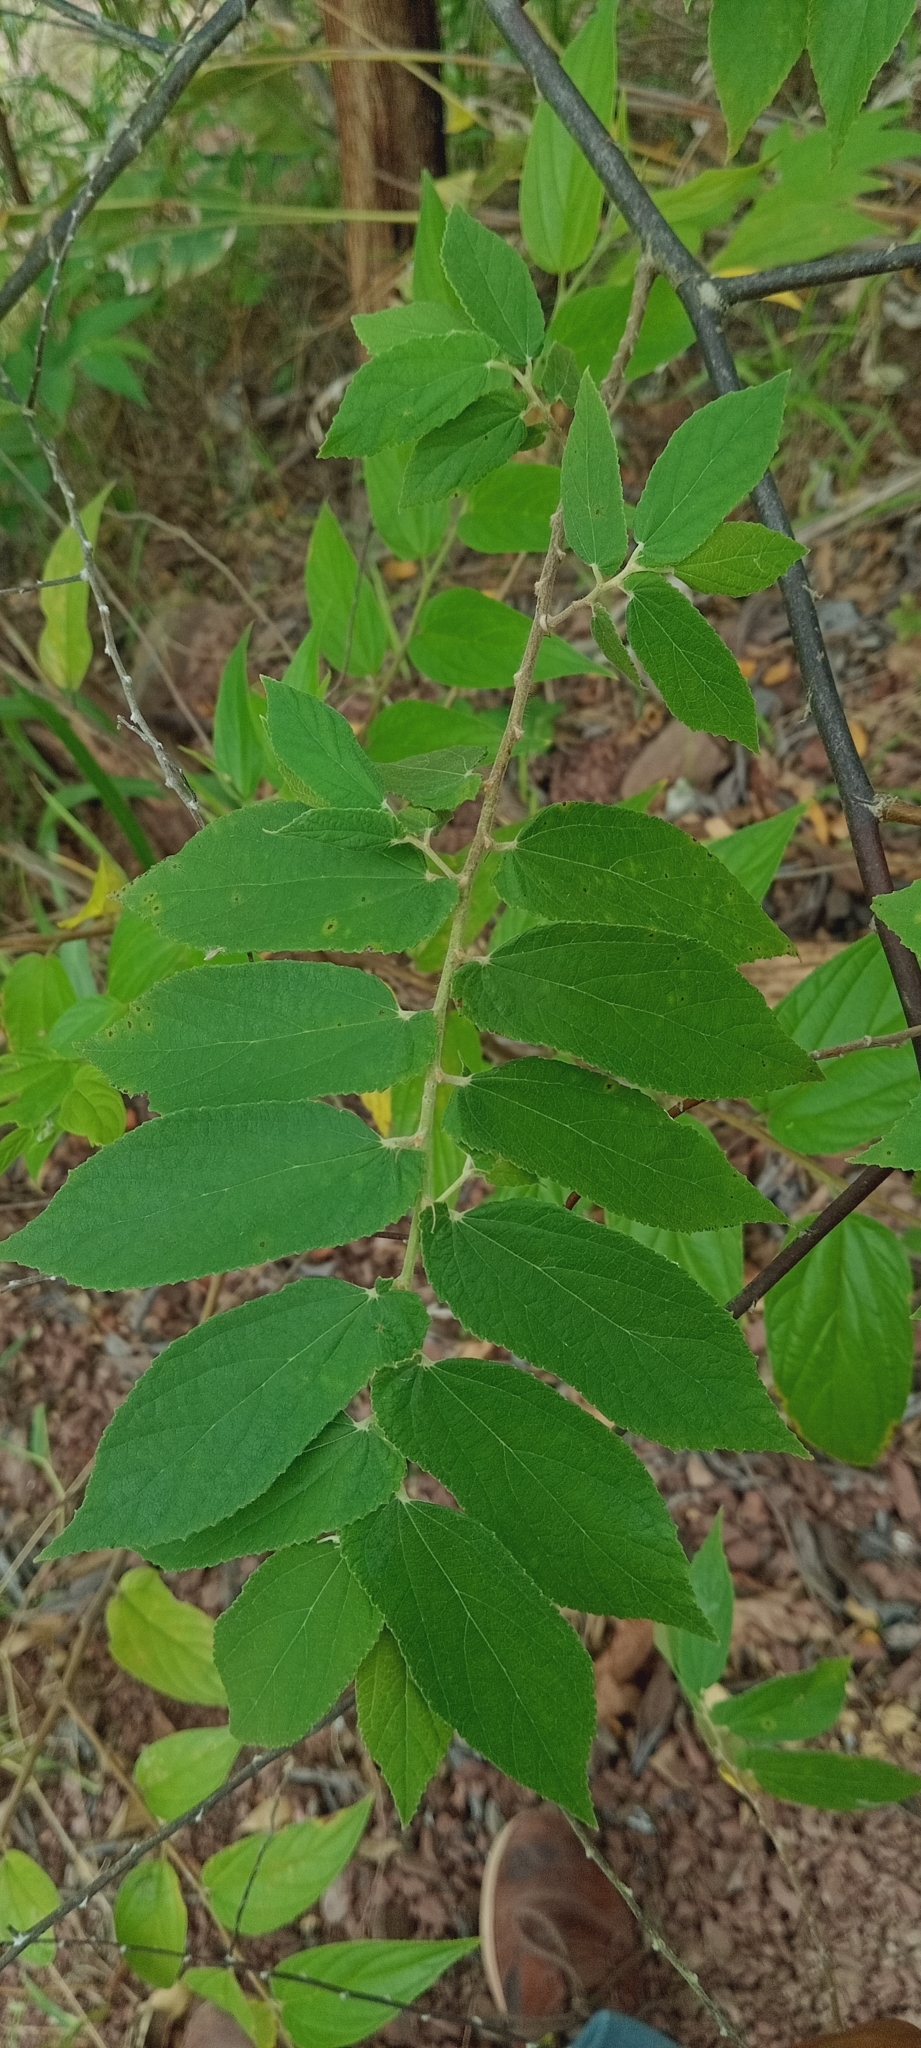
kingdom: Plantae
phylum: Tracheophyta
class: Magnoliopsida
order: Malvales
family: Muntingiaceae
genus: Muntingia
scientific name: Muntingia calabura
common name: Strawberrytree
